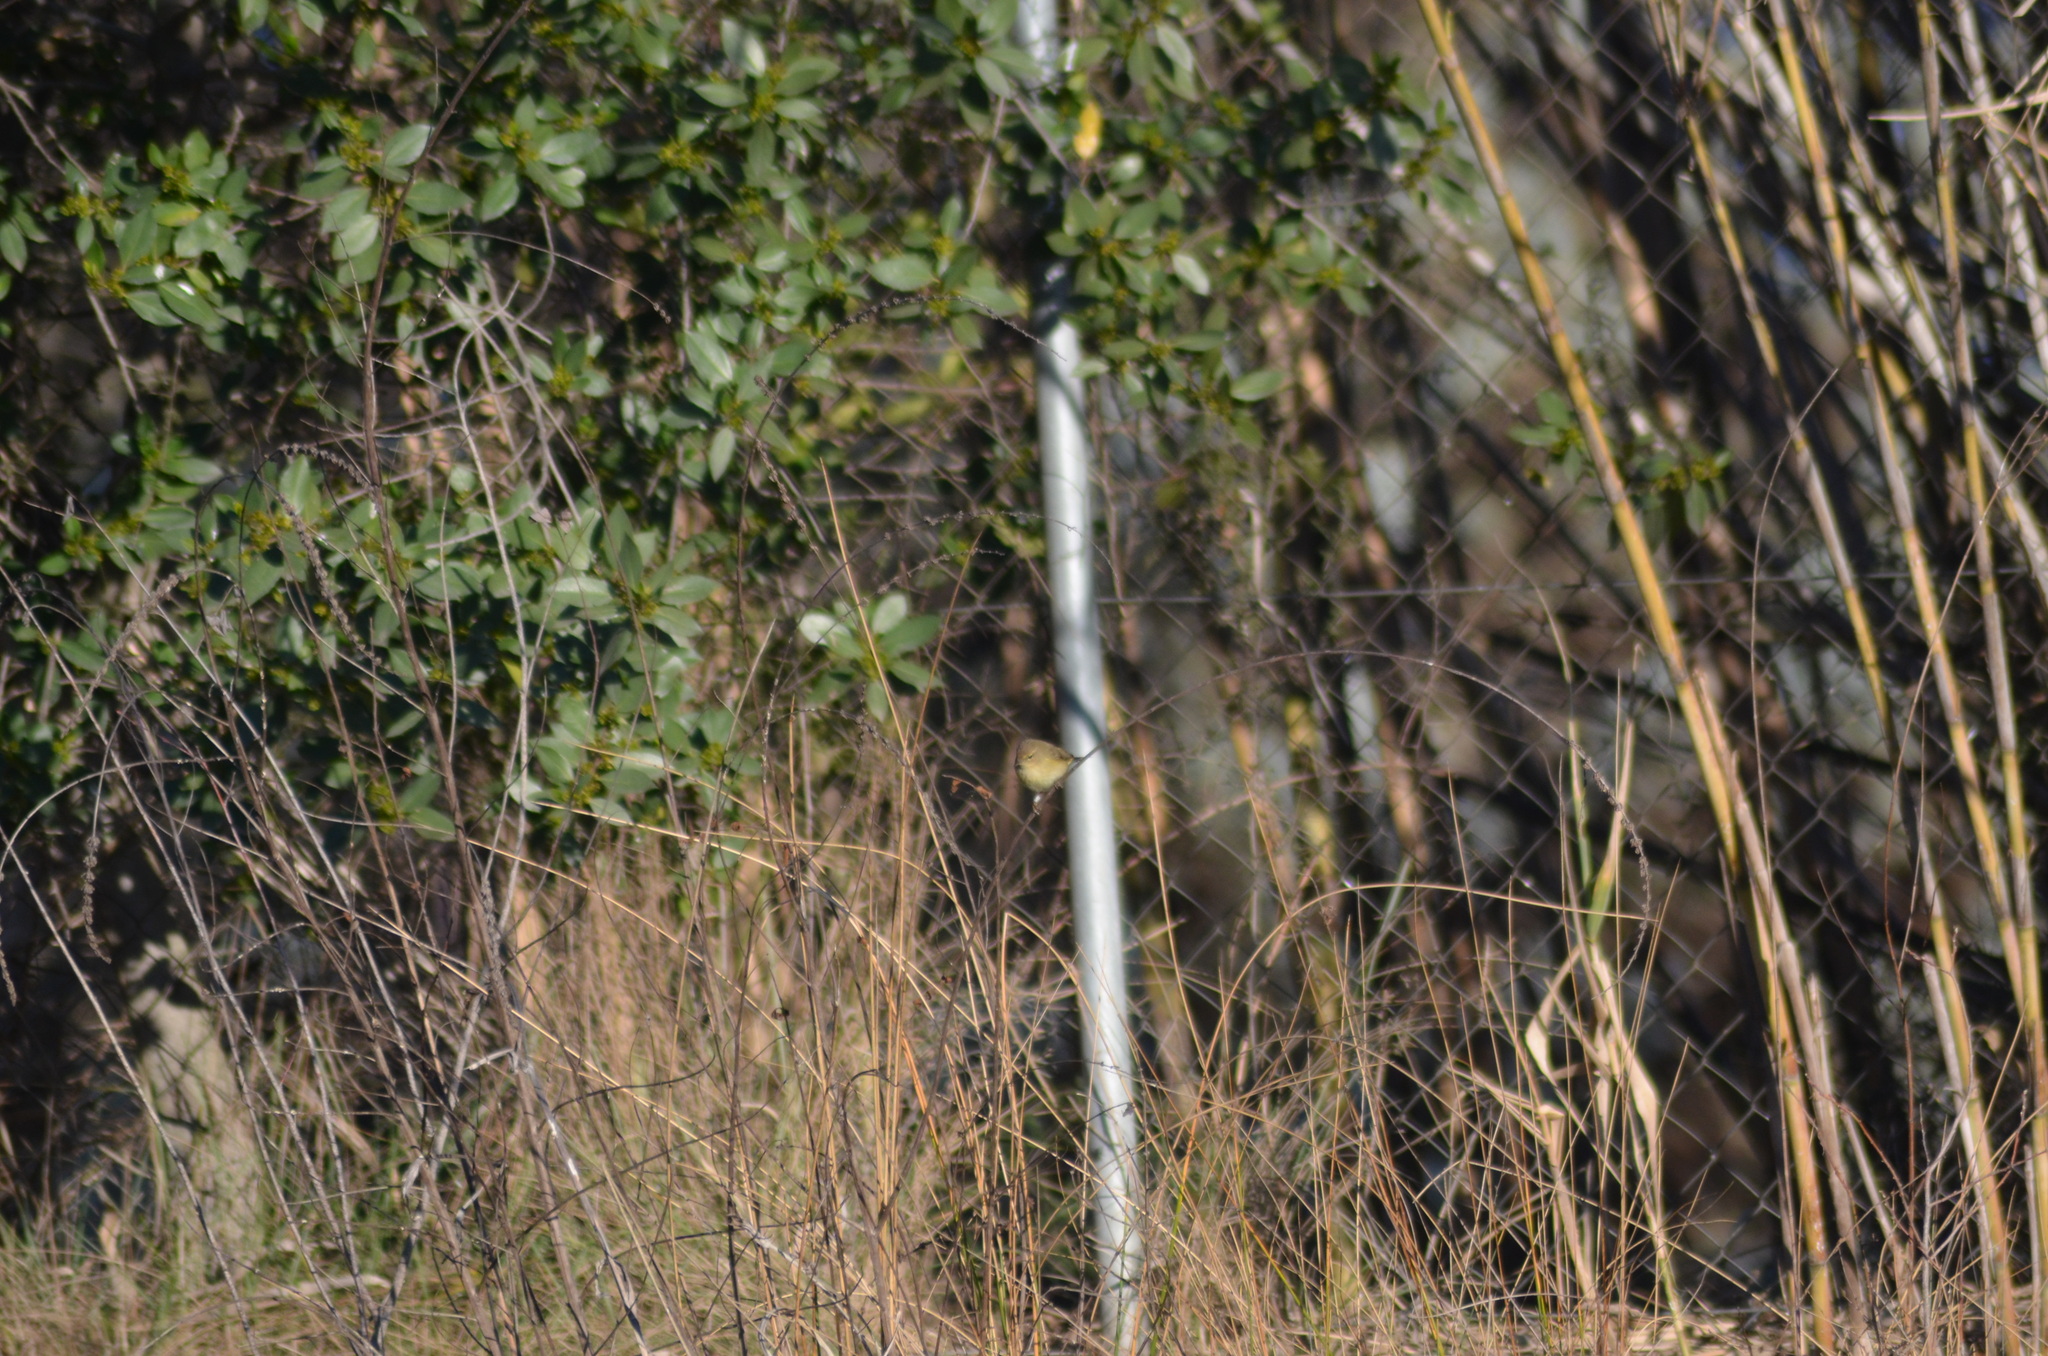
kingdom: Animalia
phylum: Chordata
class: Aves
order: Passeriformes
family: Phylloscopidae
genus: Phylloscopus
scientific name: Phylloscopus collybita
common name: Common chiffchaff
